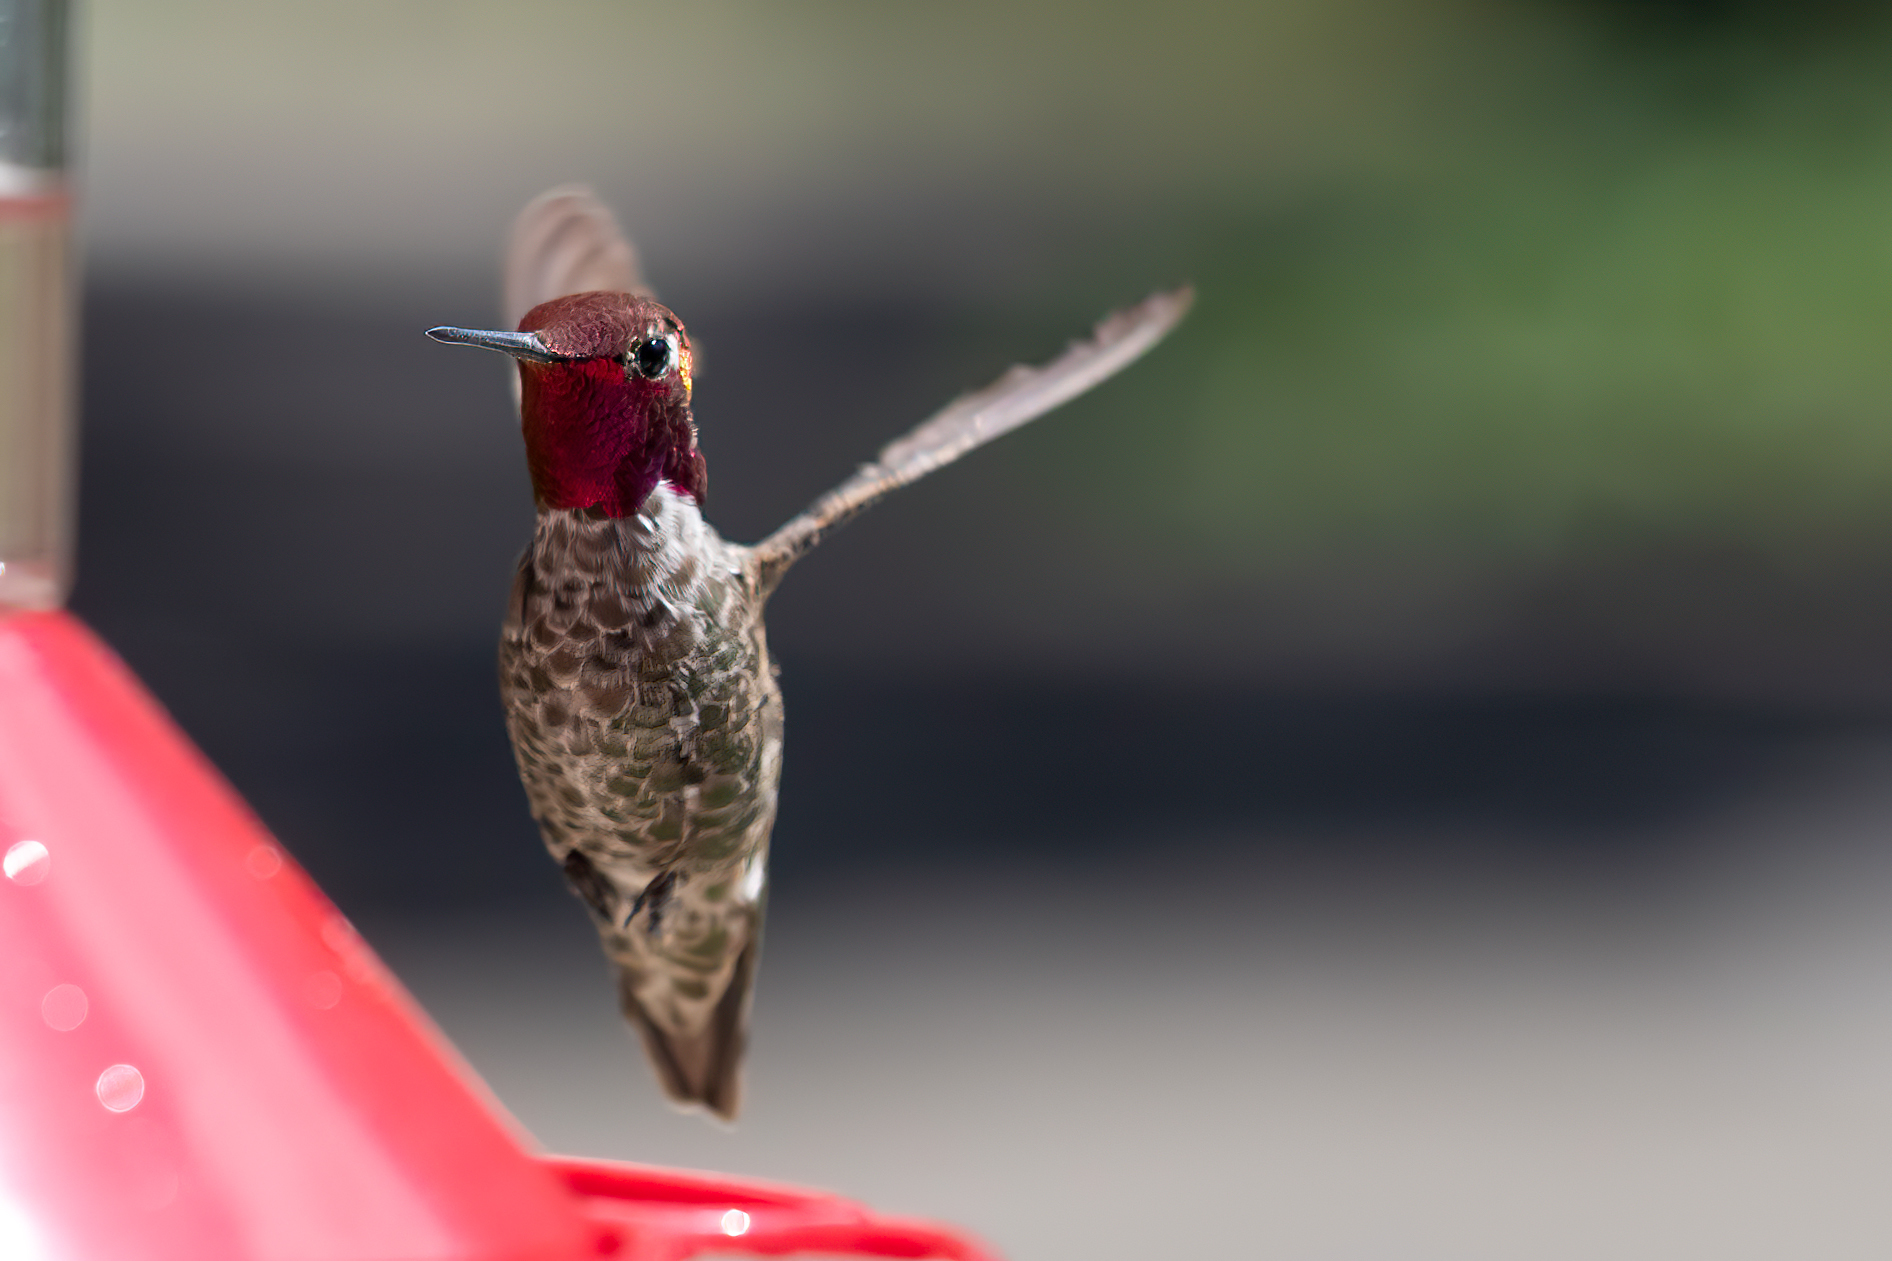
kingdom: Animalia
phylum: Chordata
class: Aves
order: Apodiformes
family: Trochilidae
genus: Calypte
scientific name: Calypte anna
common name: Anna's hummingbird
